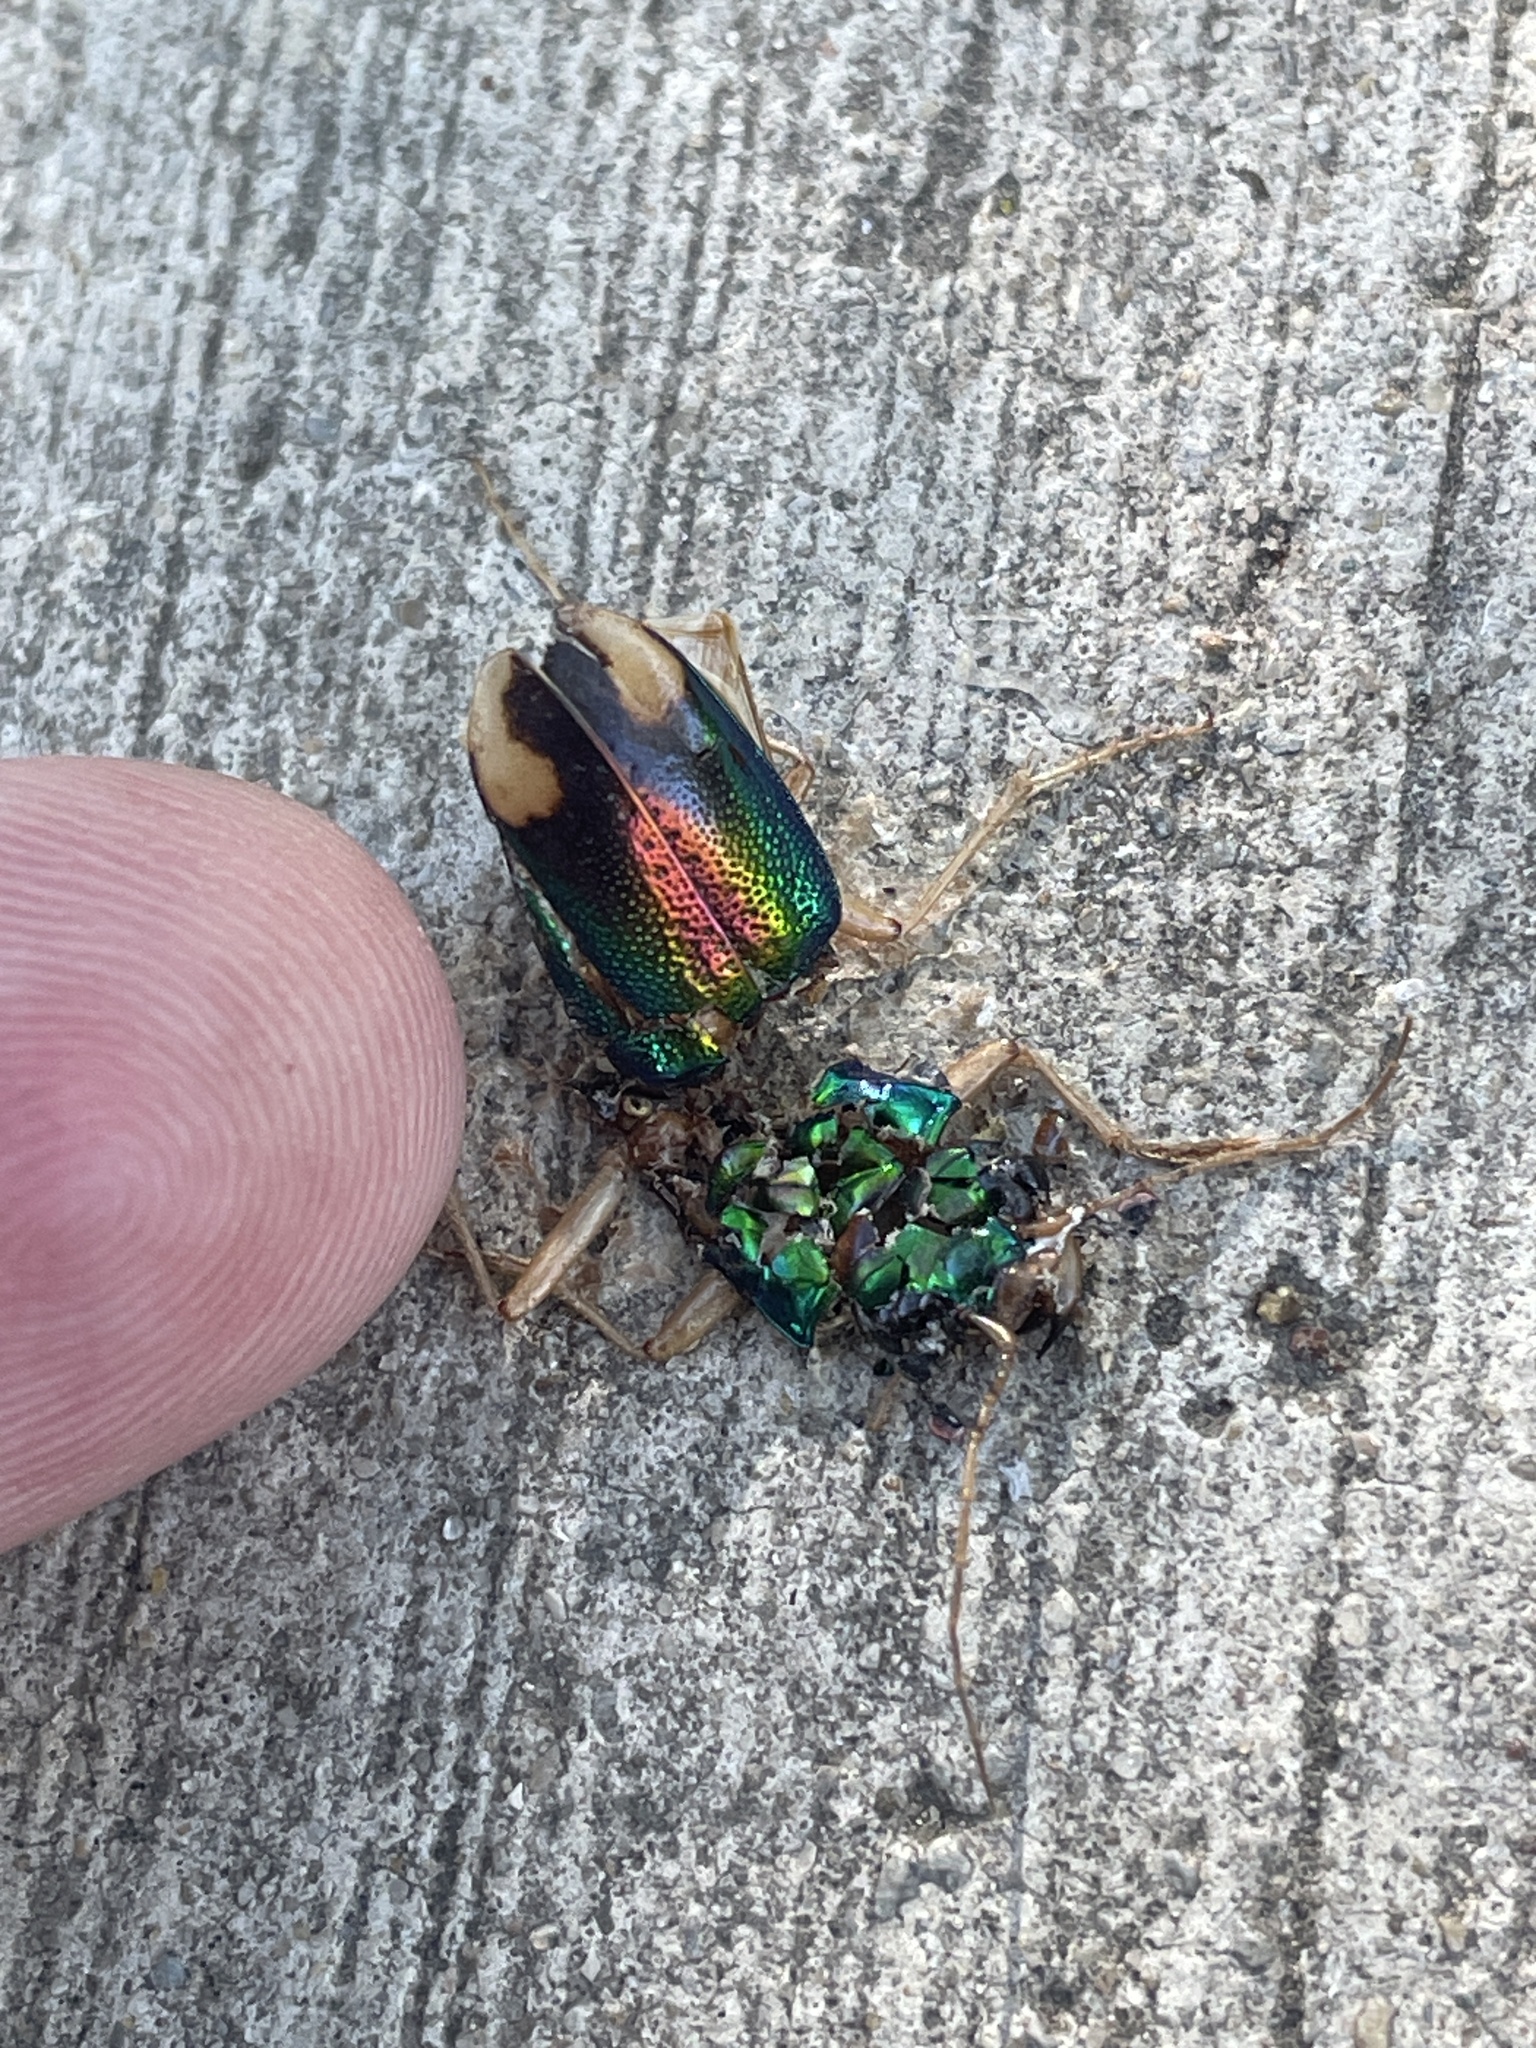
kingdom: Animalia
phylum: Arthropoda
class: Insecta
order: Coleoptera
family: Carabidae
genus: Tetracha
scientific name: Tetracha carolina
